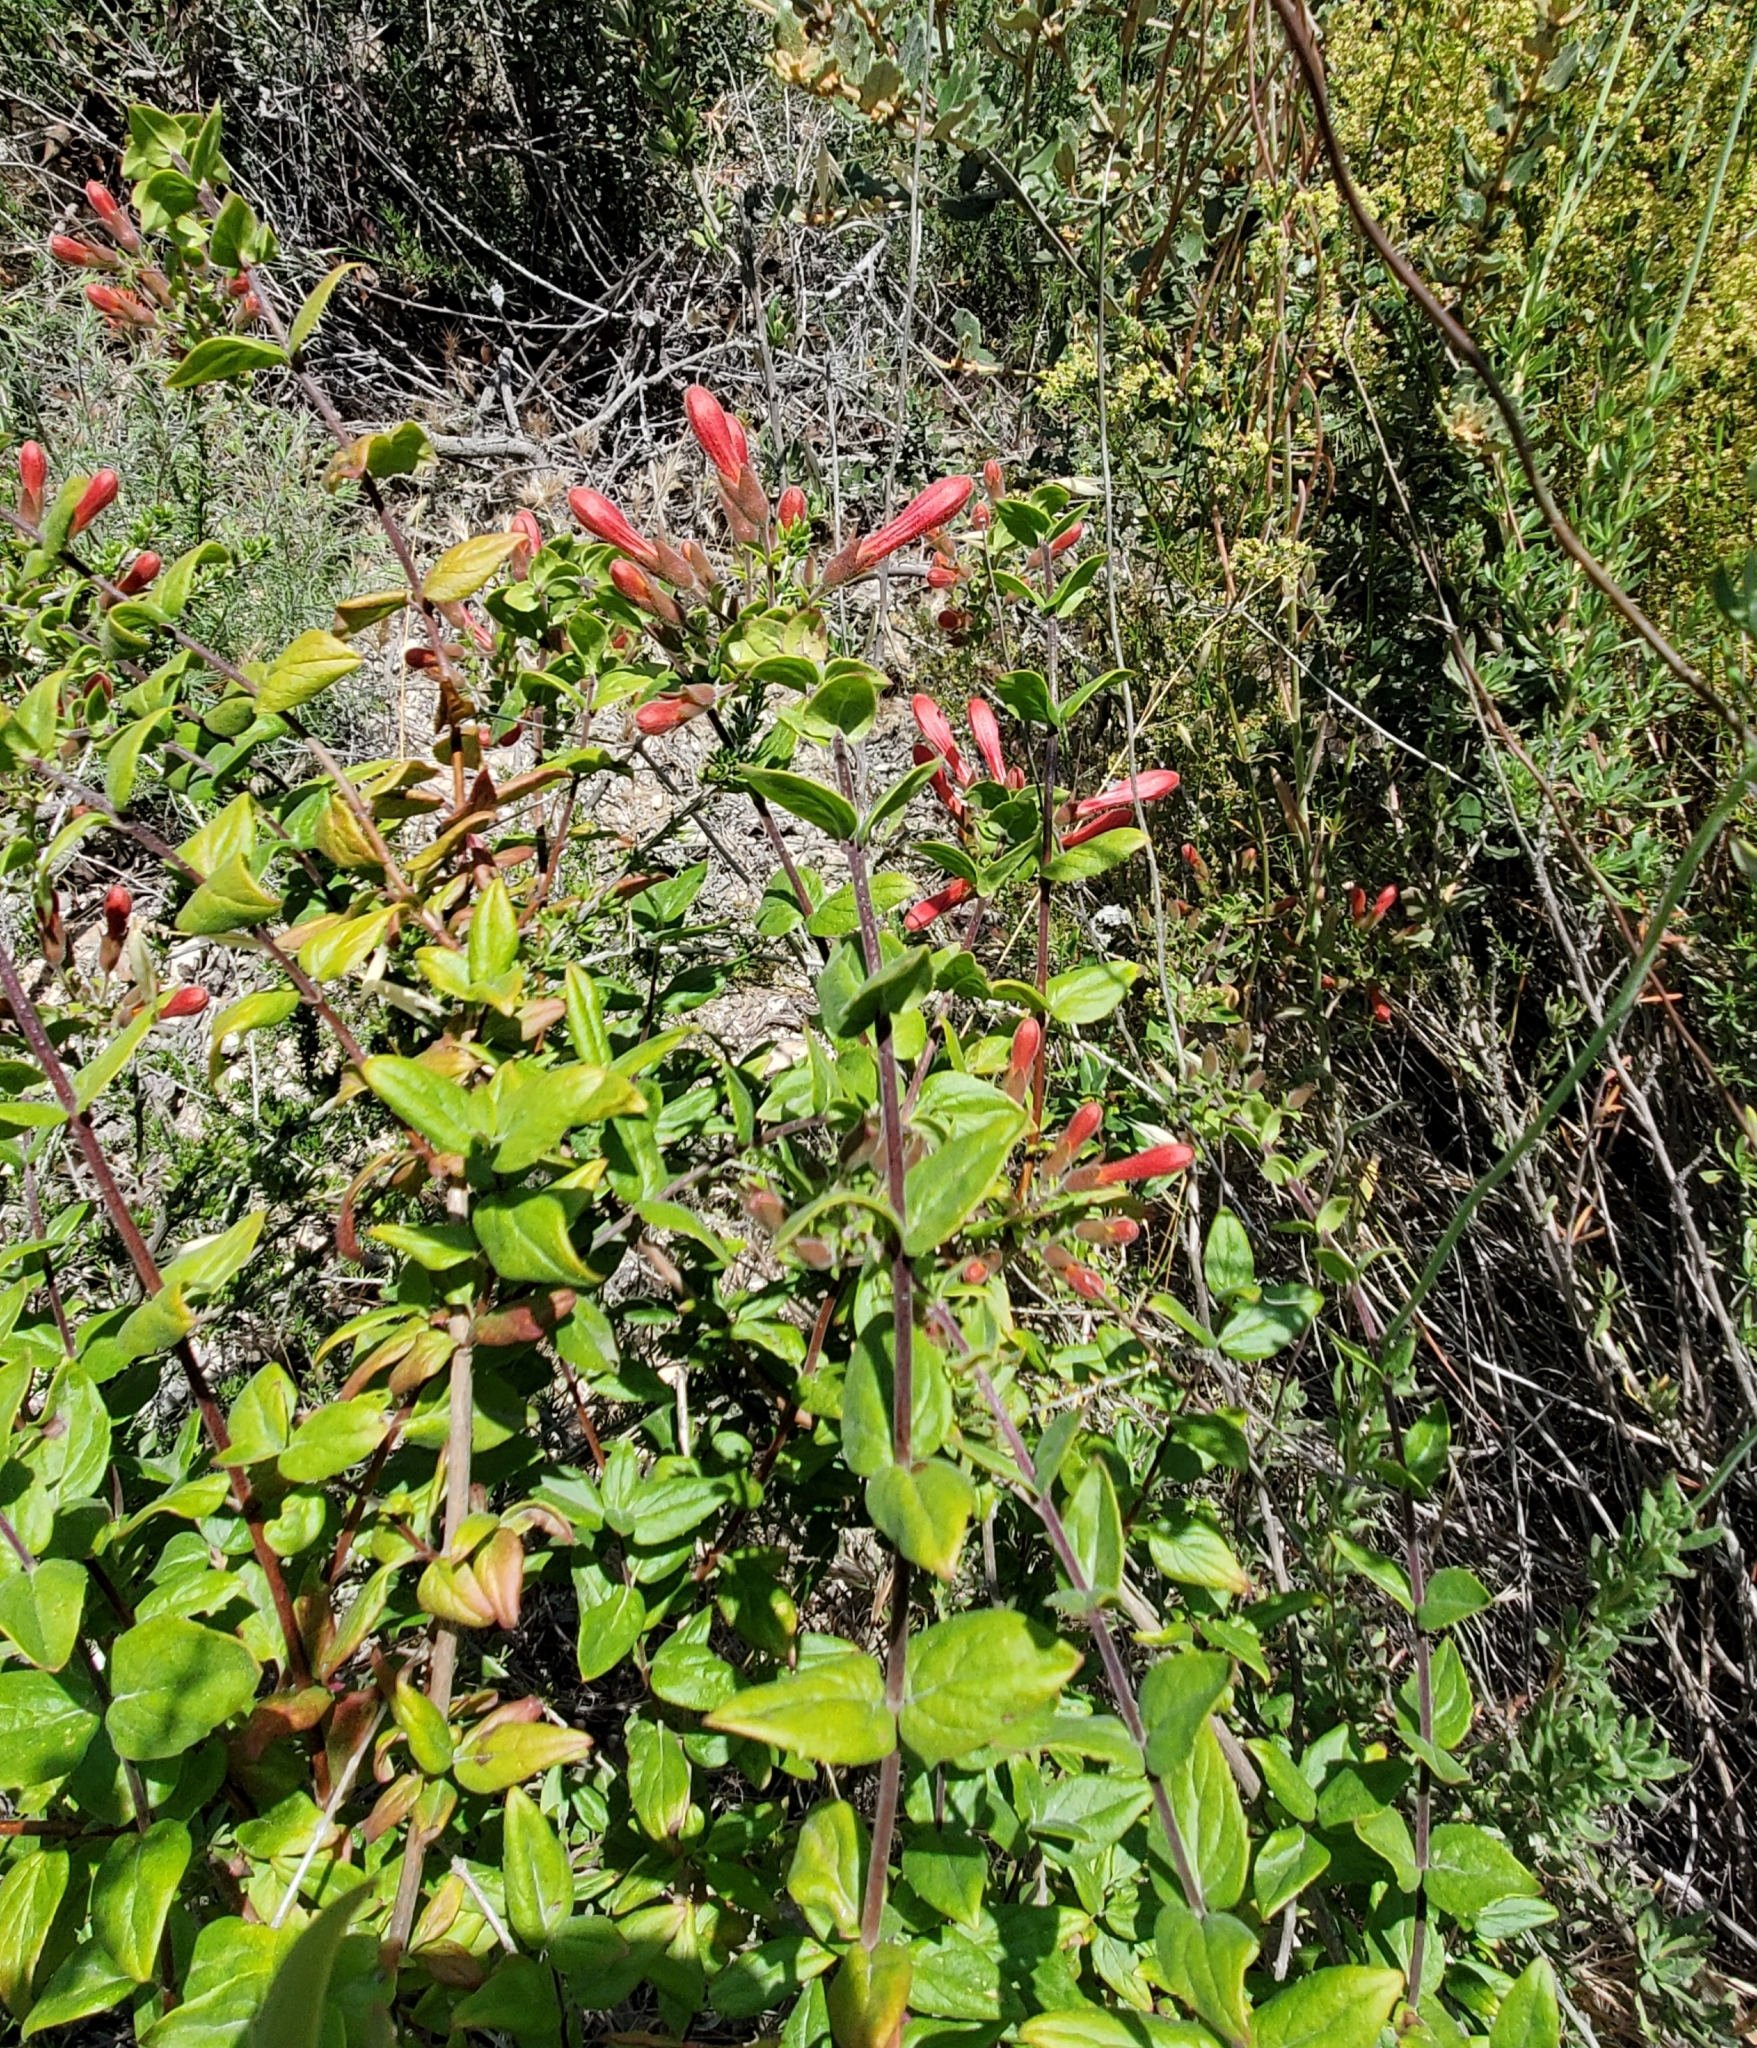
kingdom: Plantae
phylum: Tracheophyta
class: Magnoliopsida
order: Lamiales
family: Plantaginaceae
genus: Keckiella
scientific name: Keckiella cordifolia
